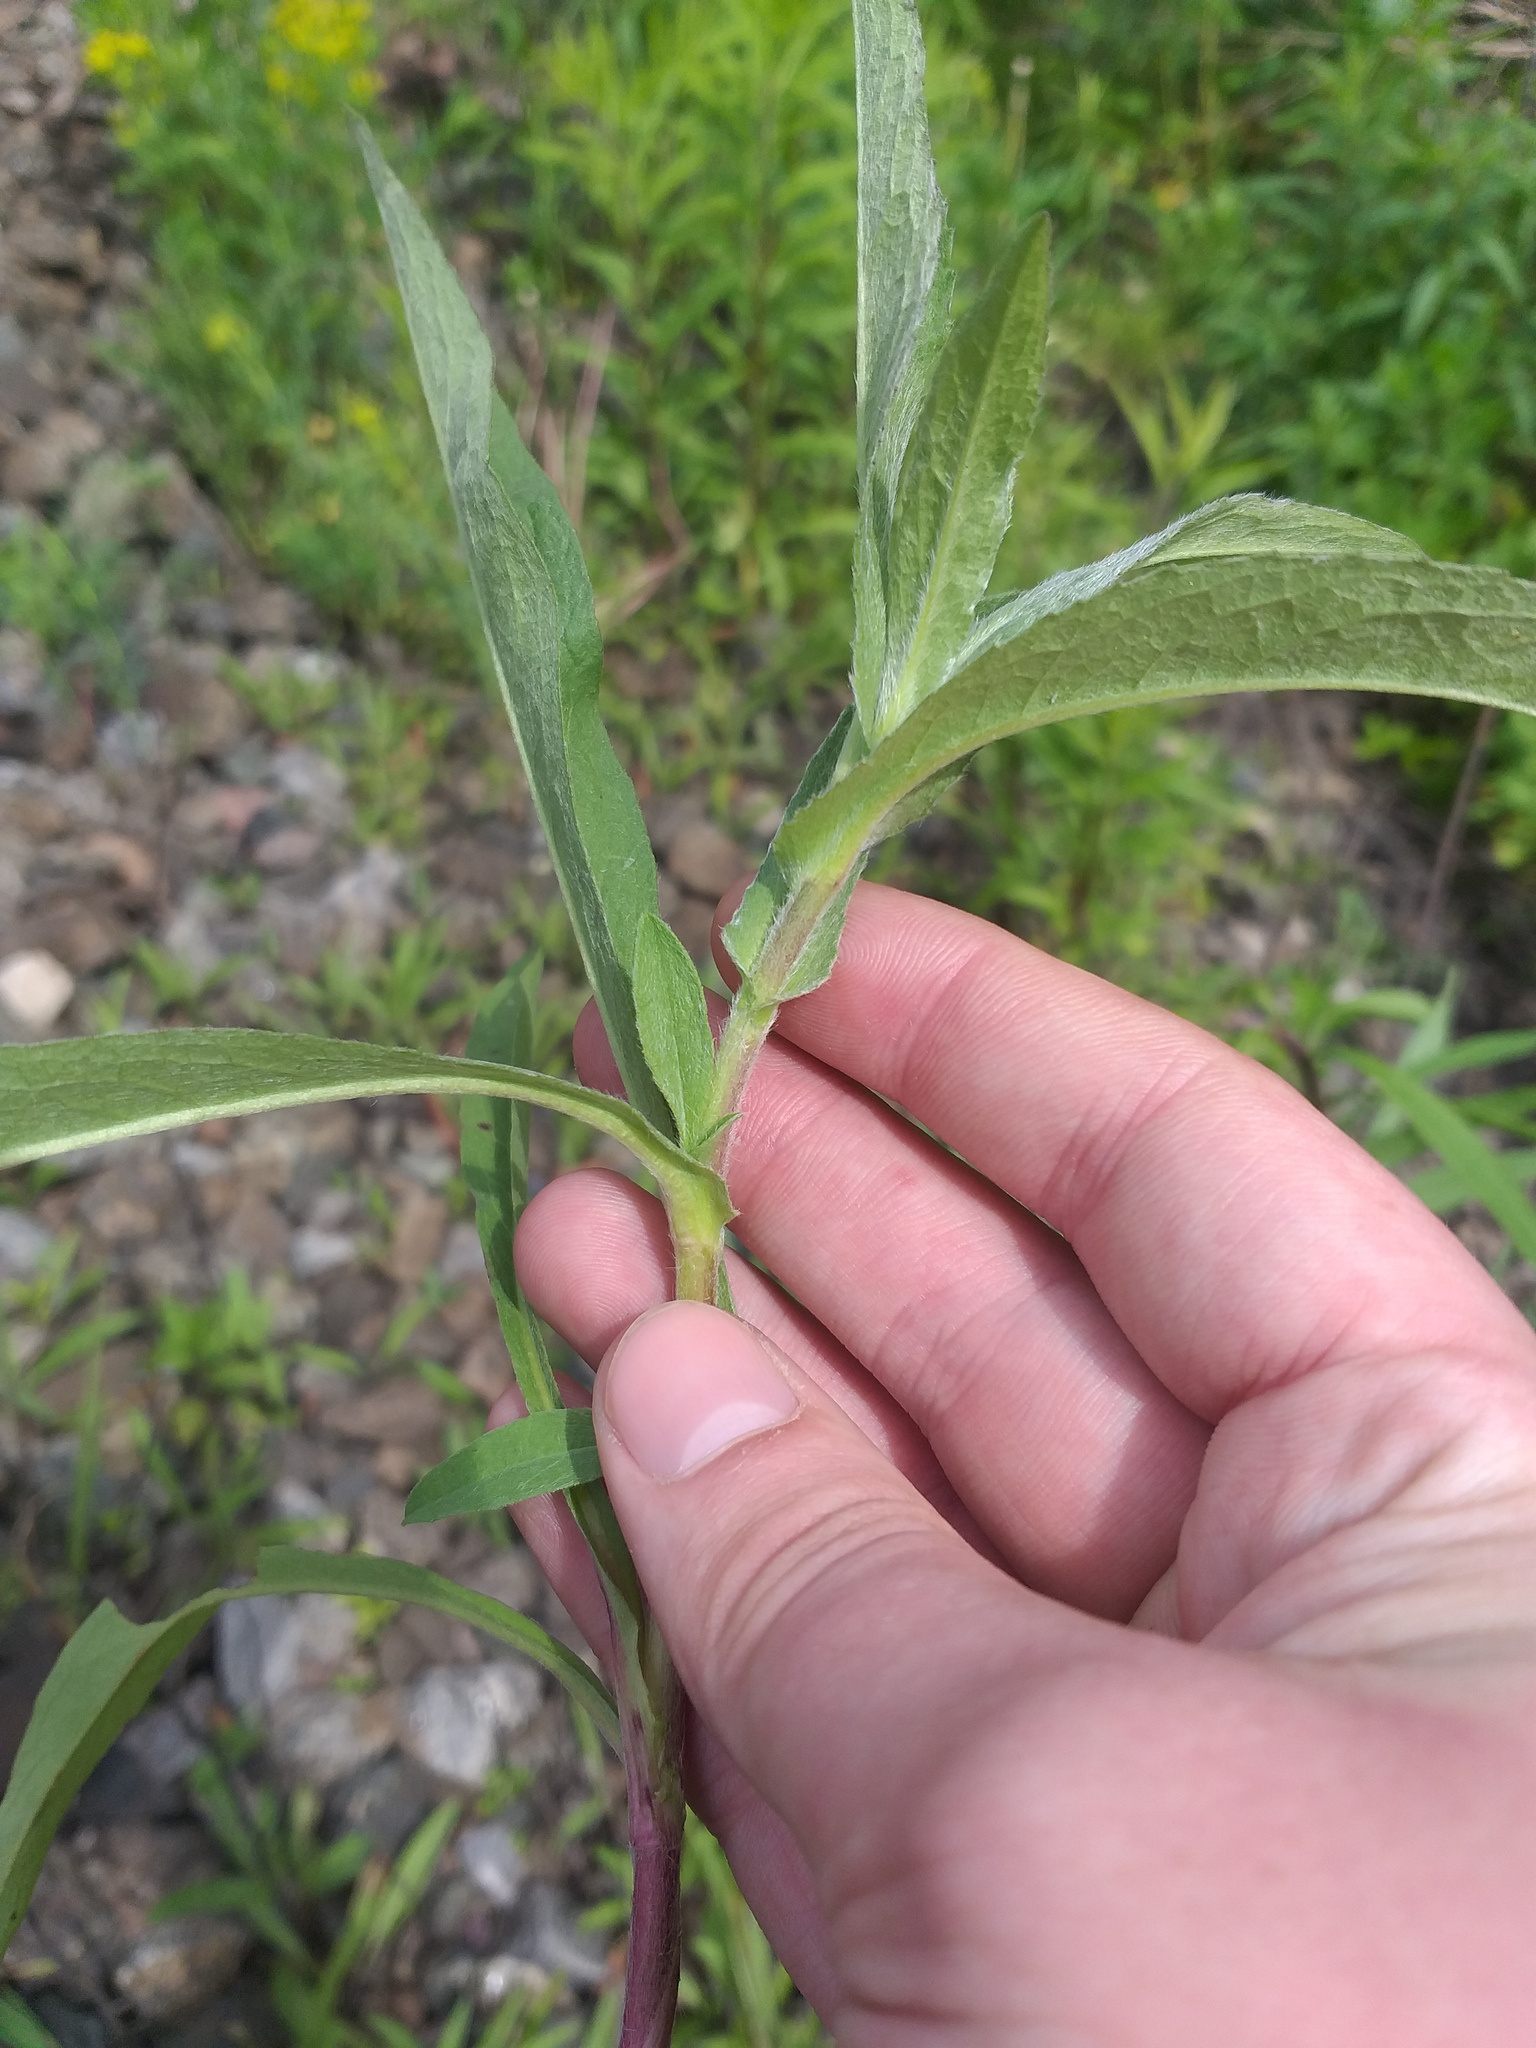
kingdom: Plantae
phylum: Tracheophyta
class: Magnoliopsida
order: Asterales
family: Asteraceae
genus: Pentanema
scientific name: Pentanema britannicum
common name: British elecampane
